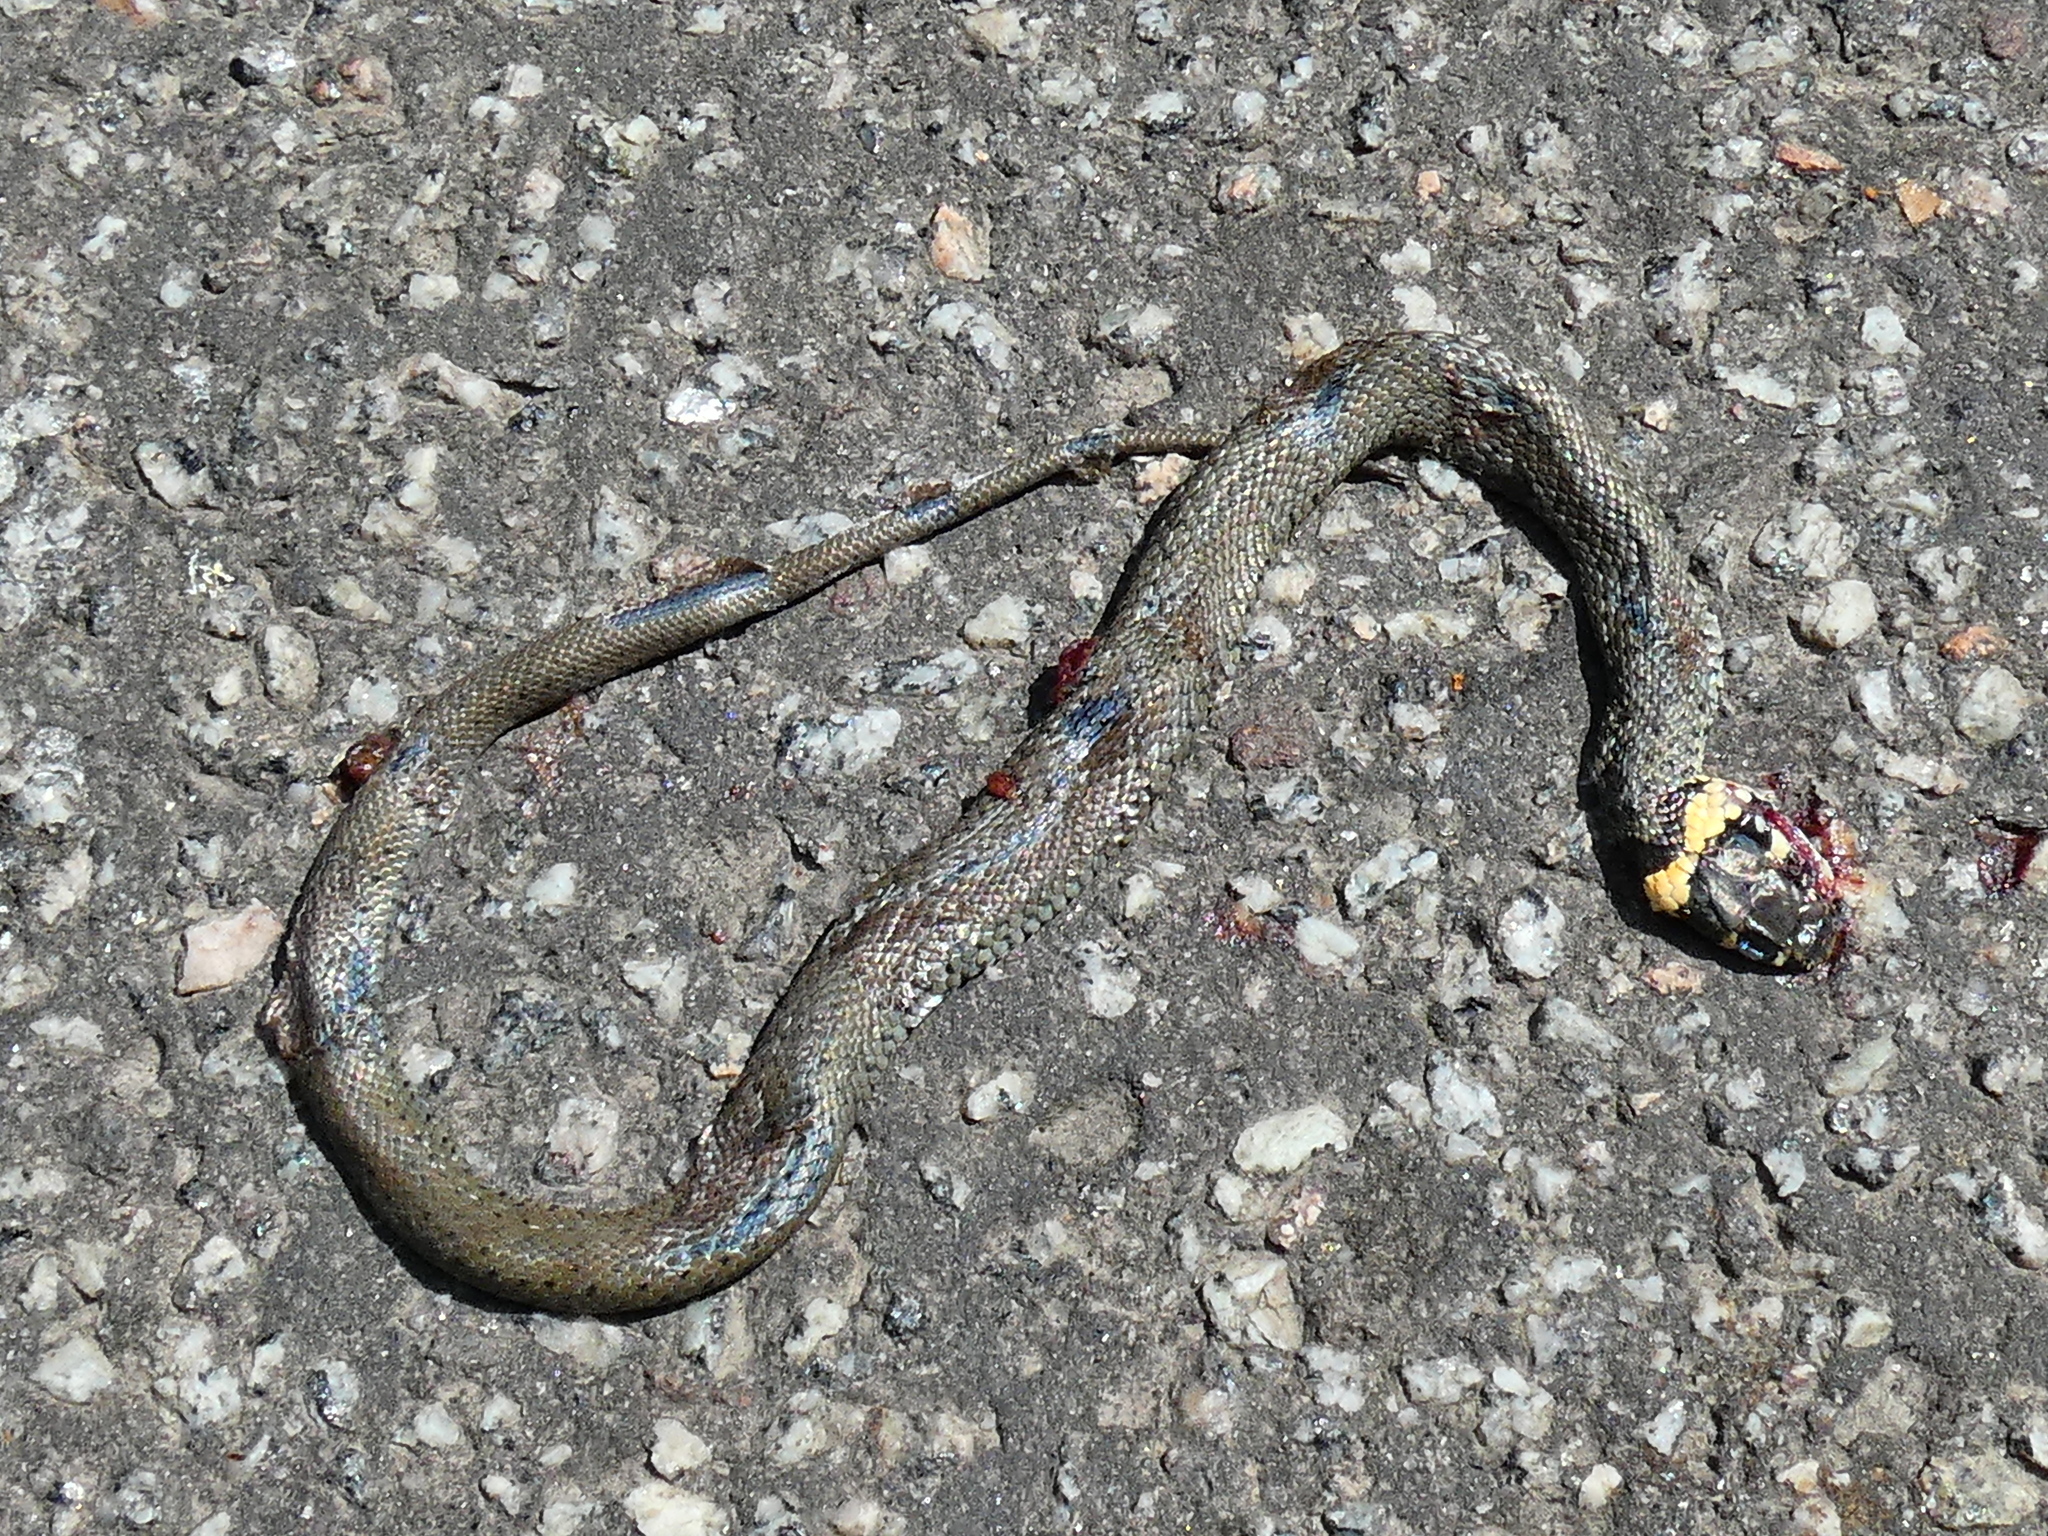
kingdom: Animalia
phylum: Chordata
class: Squamata
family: Colubridae
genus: Natrix
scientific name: Natrix natrix
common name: Grass snake
